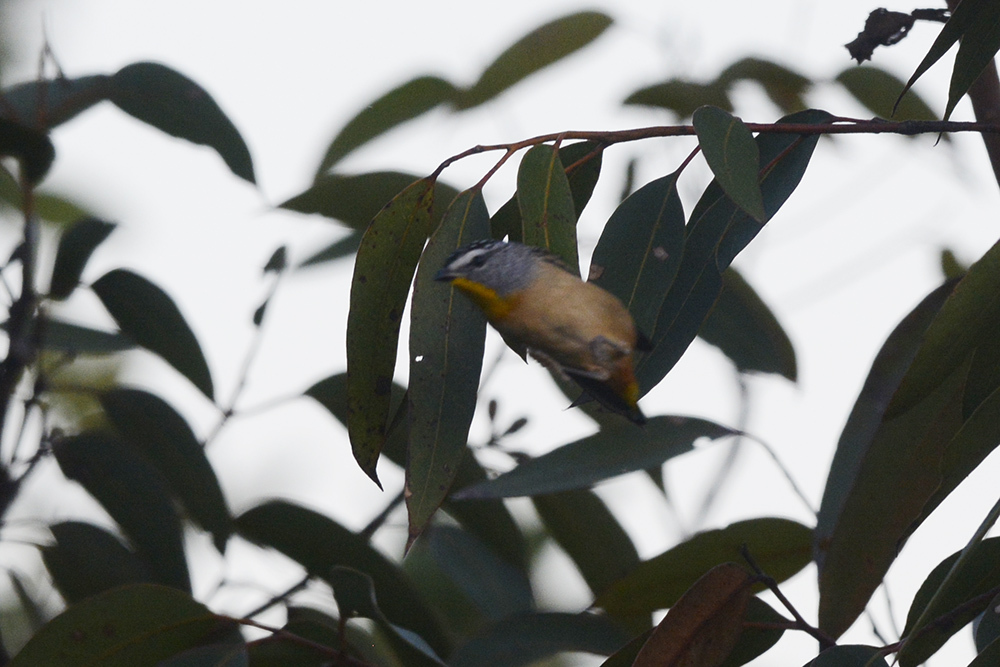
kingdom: Animalia
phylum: Chordata
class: Aves
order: Passeriformes
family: Pardalotidae
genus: Pardalotus
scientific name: Pardalotus punctatus
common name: Spotted pardalote
